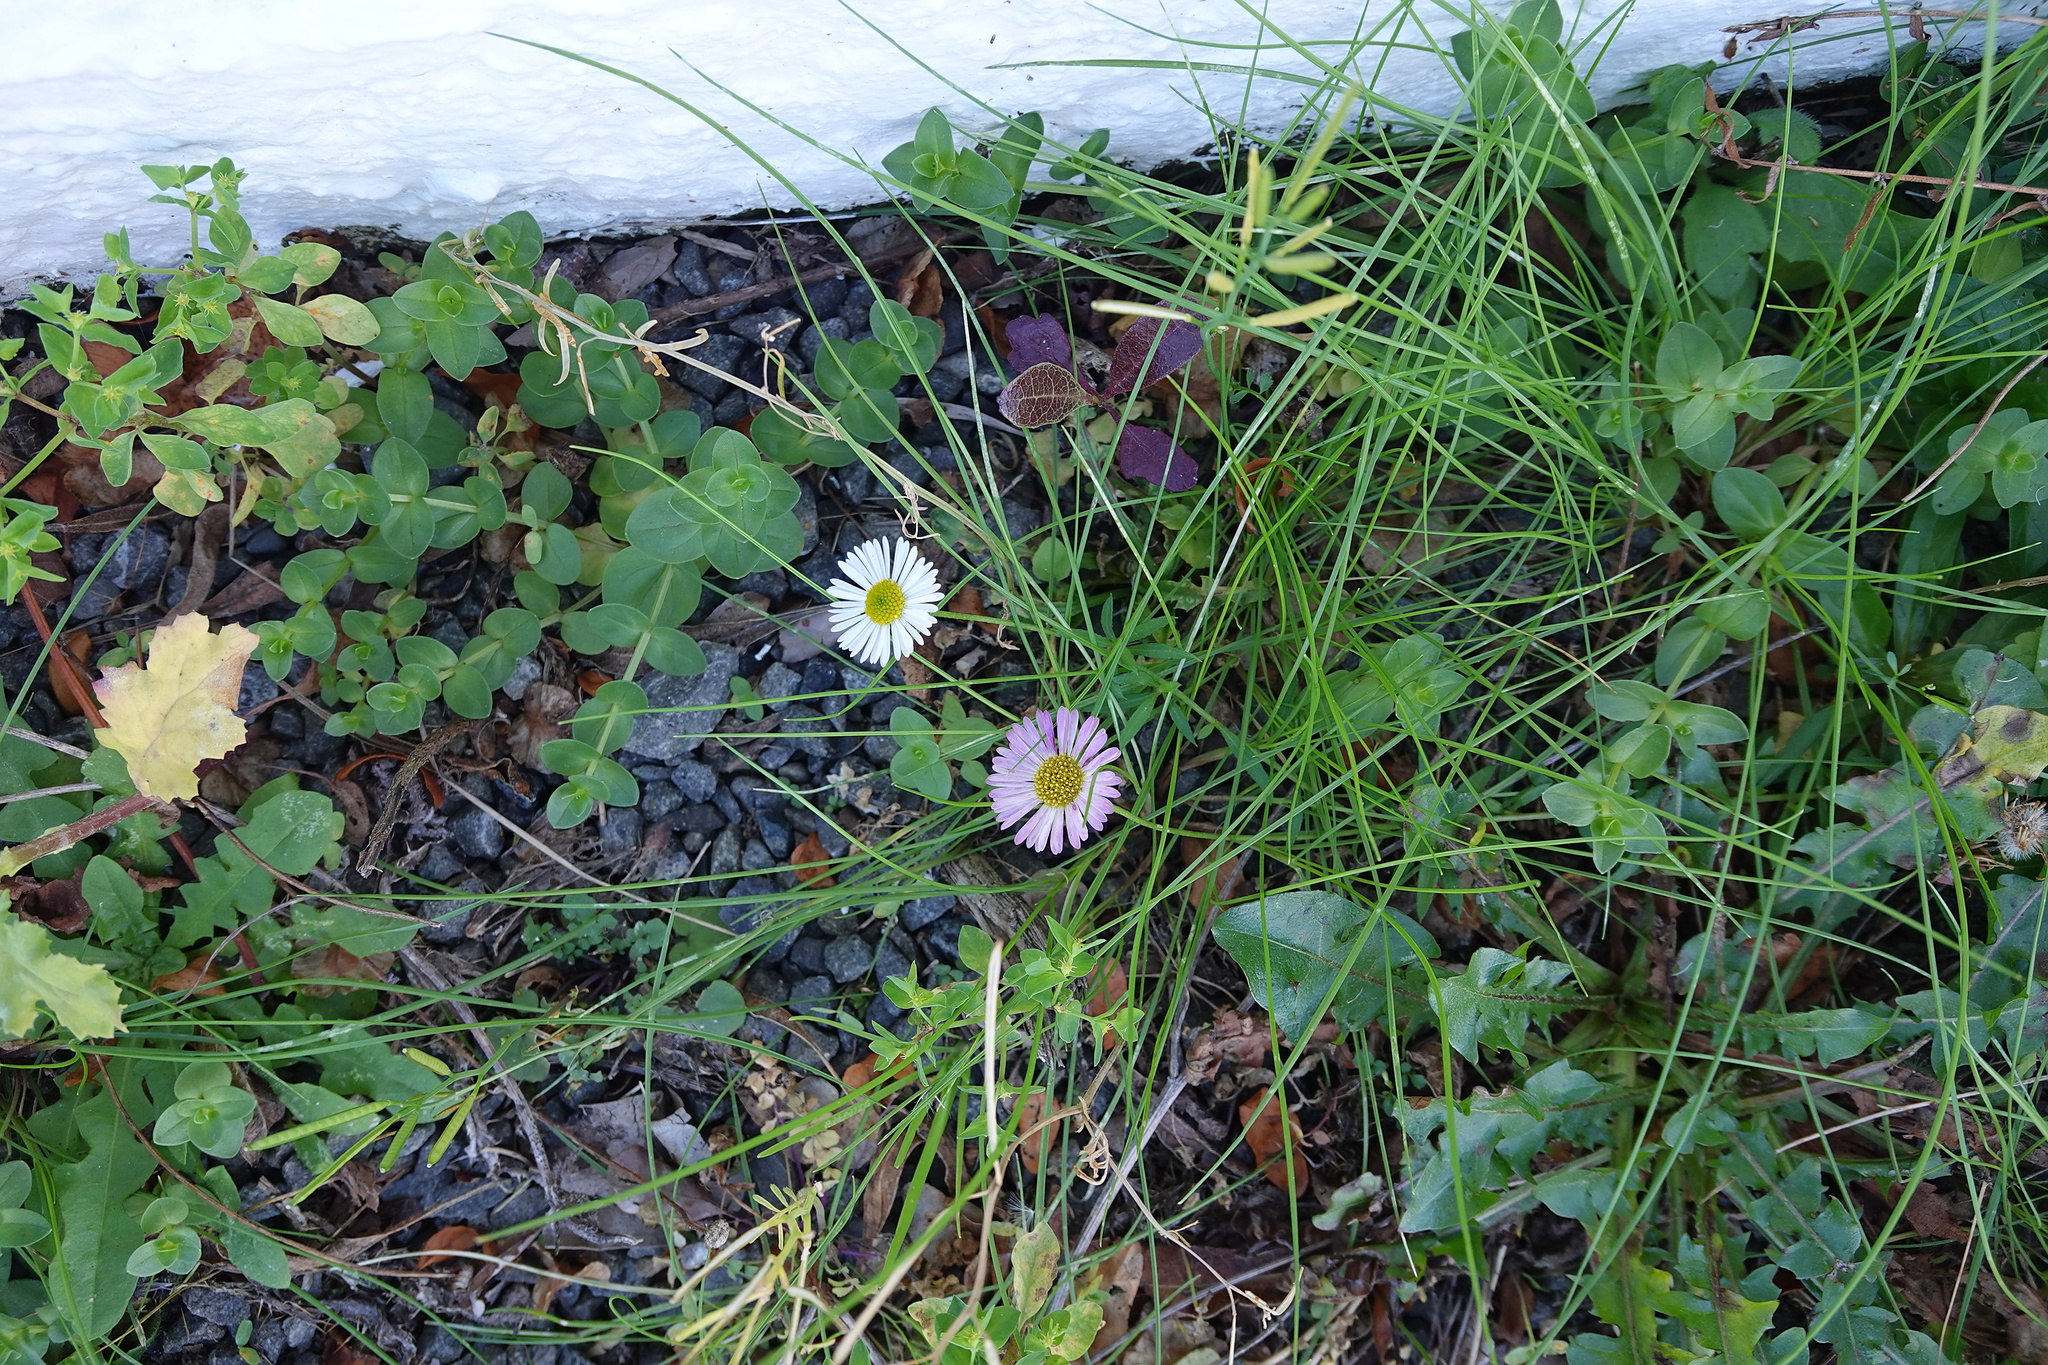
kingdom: Plantae
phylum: Tracheophyta
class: Magnoliopsida
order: Asterales
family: Asteraceae
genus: Erigeron
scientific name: Erigeron karvinskianus
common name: Mexican fleabane
